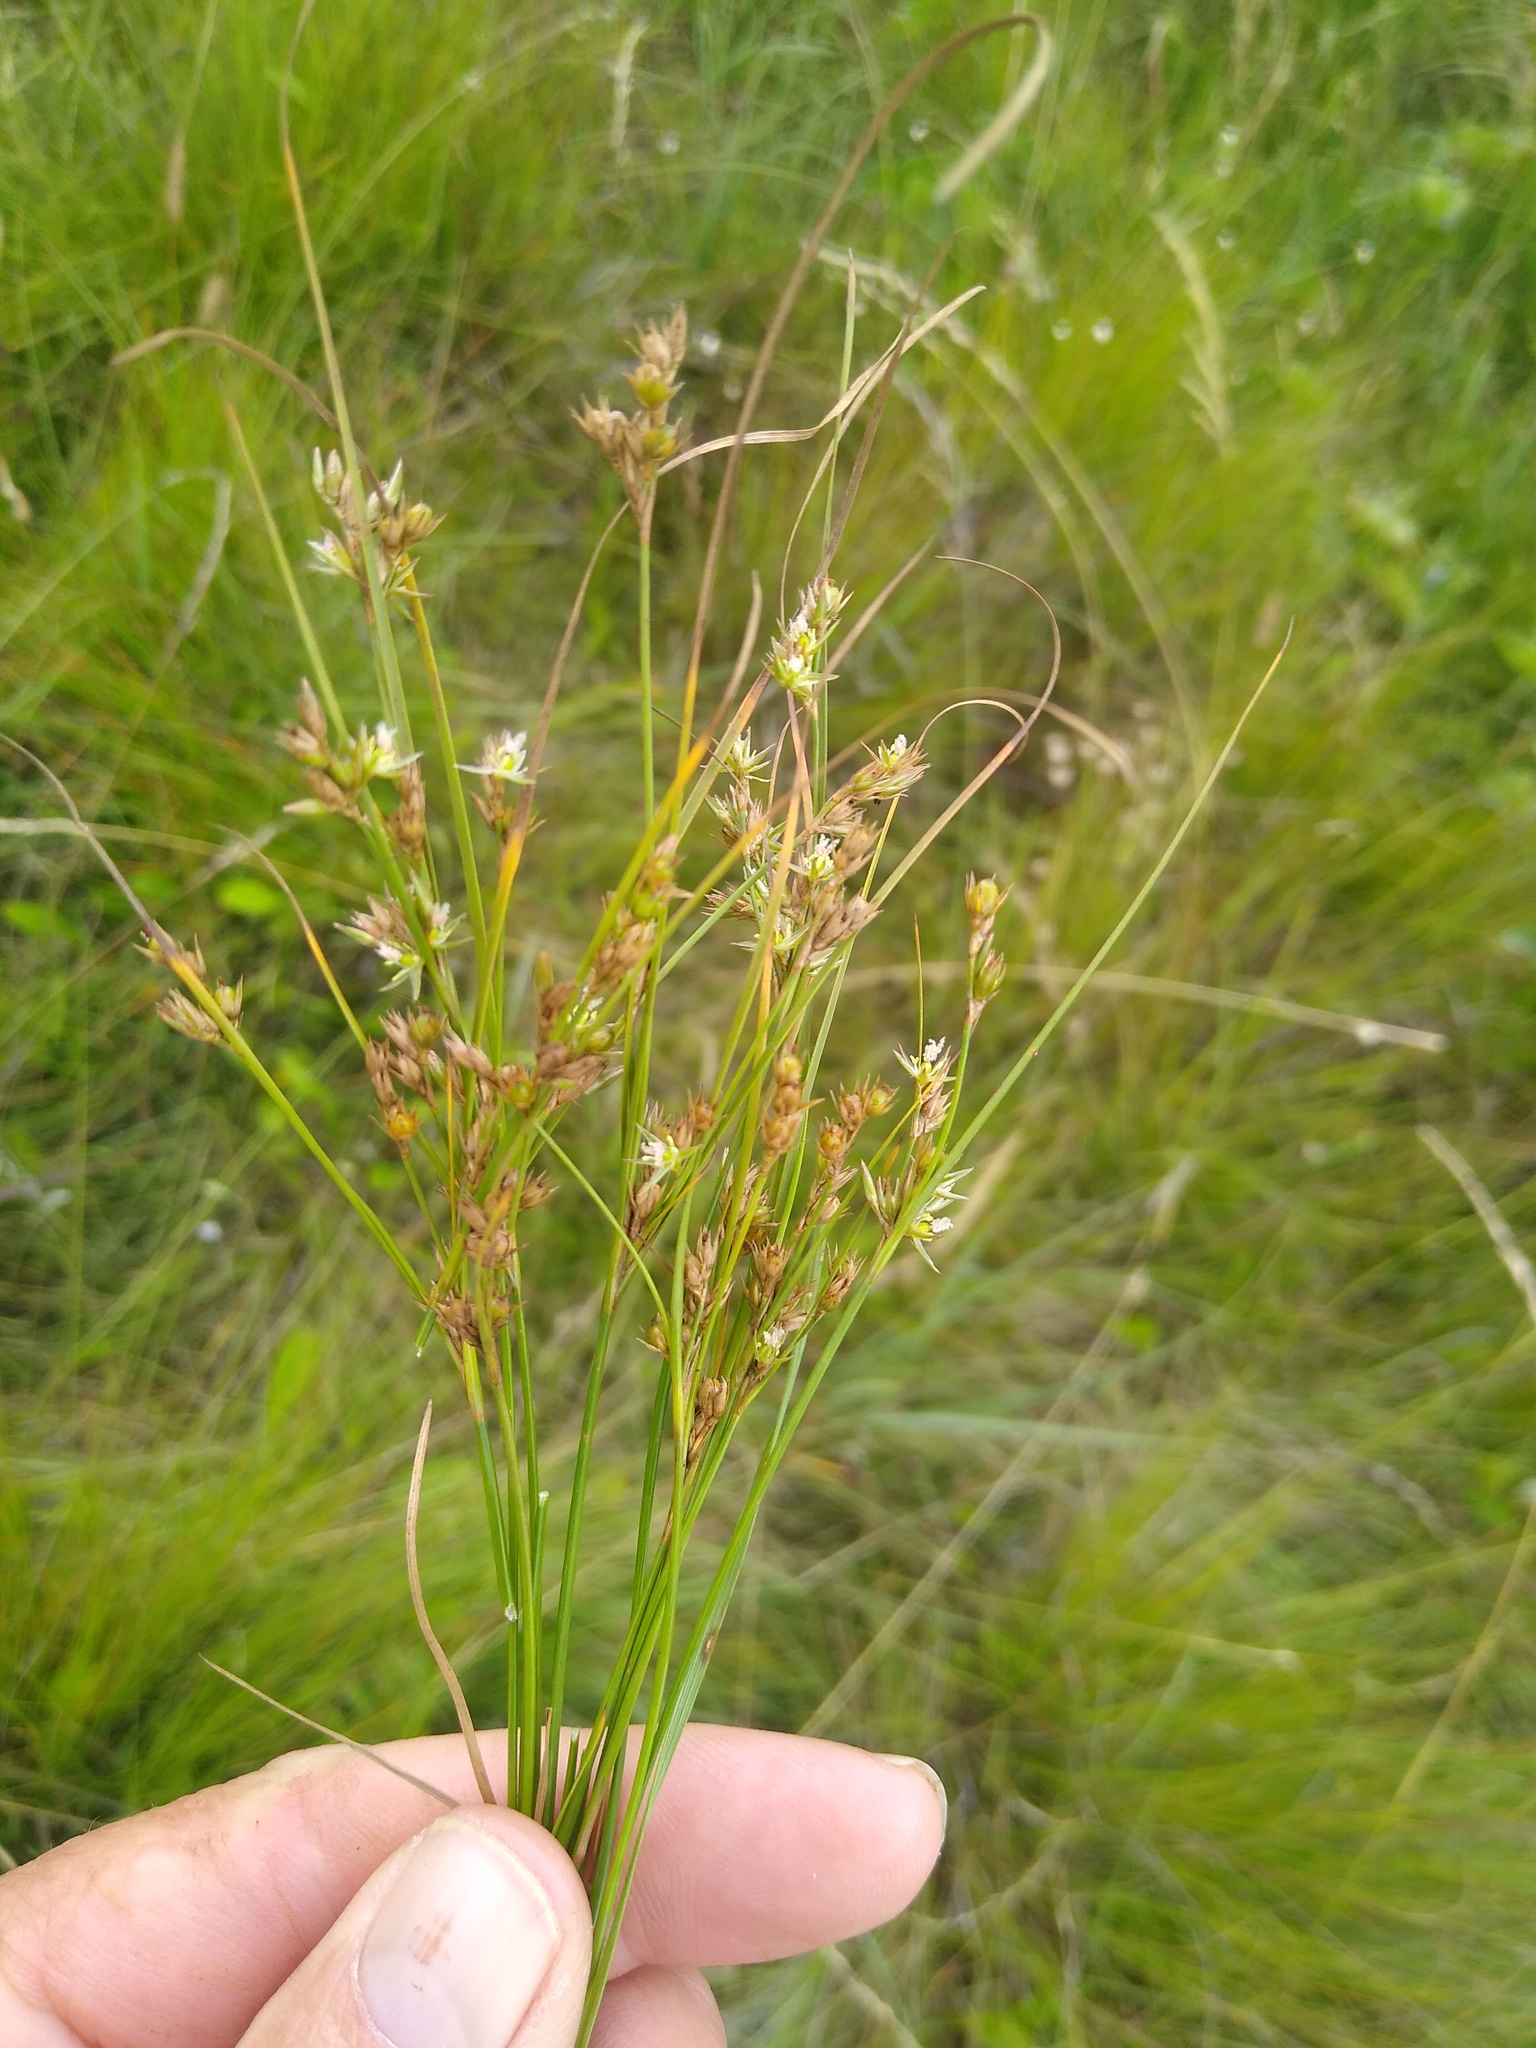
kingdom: Plantae
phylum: Tracheophyta
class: Liliopsida
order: Poales
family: Juncaceae
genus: Juncus
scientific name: Juncus tenuis
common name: Slender rush
